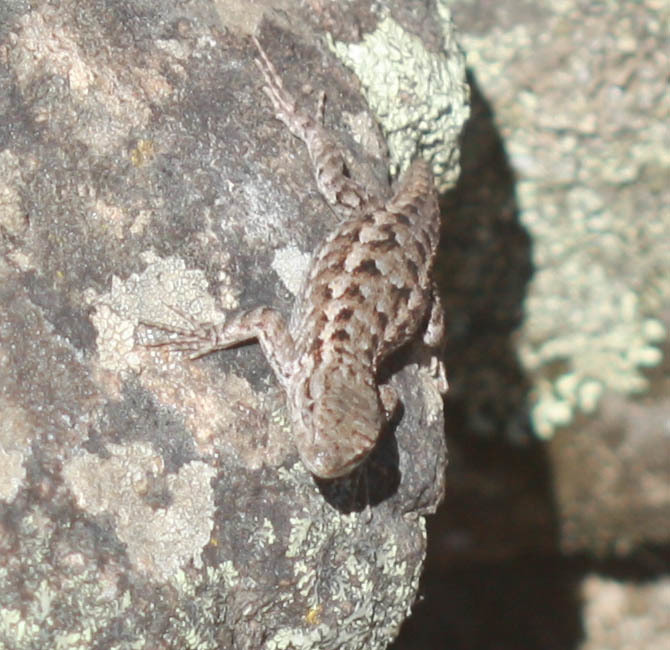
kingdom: Animalia
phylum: Chordata
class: Squamata
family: Phrynosomatidae
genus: Sceloporus
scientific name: Sceloporus occidentalis
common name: Western fence lizard
